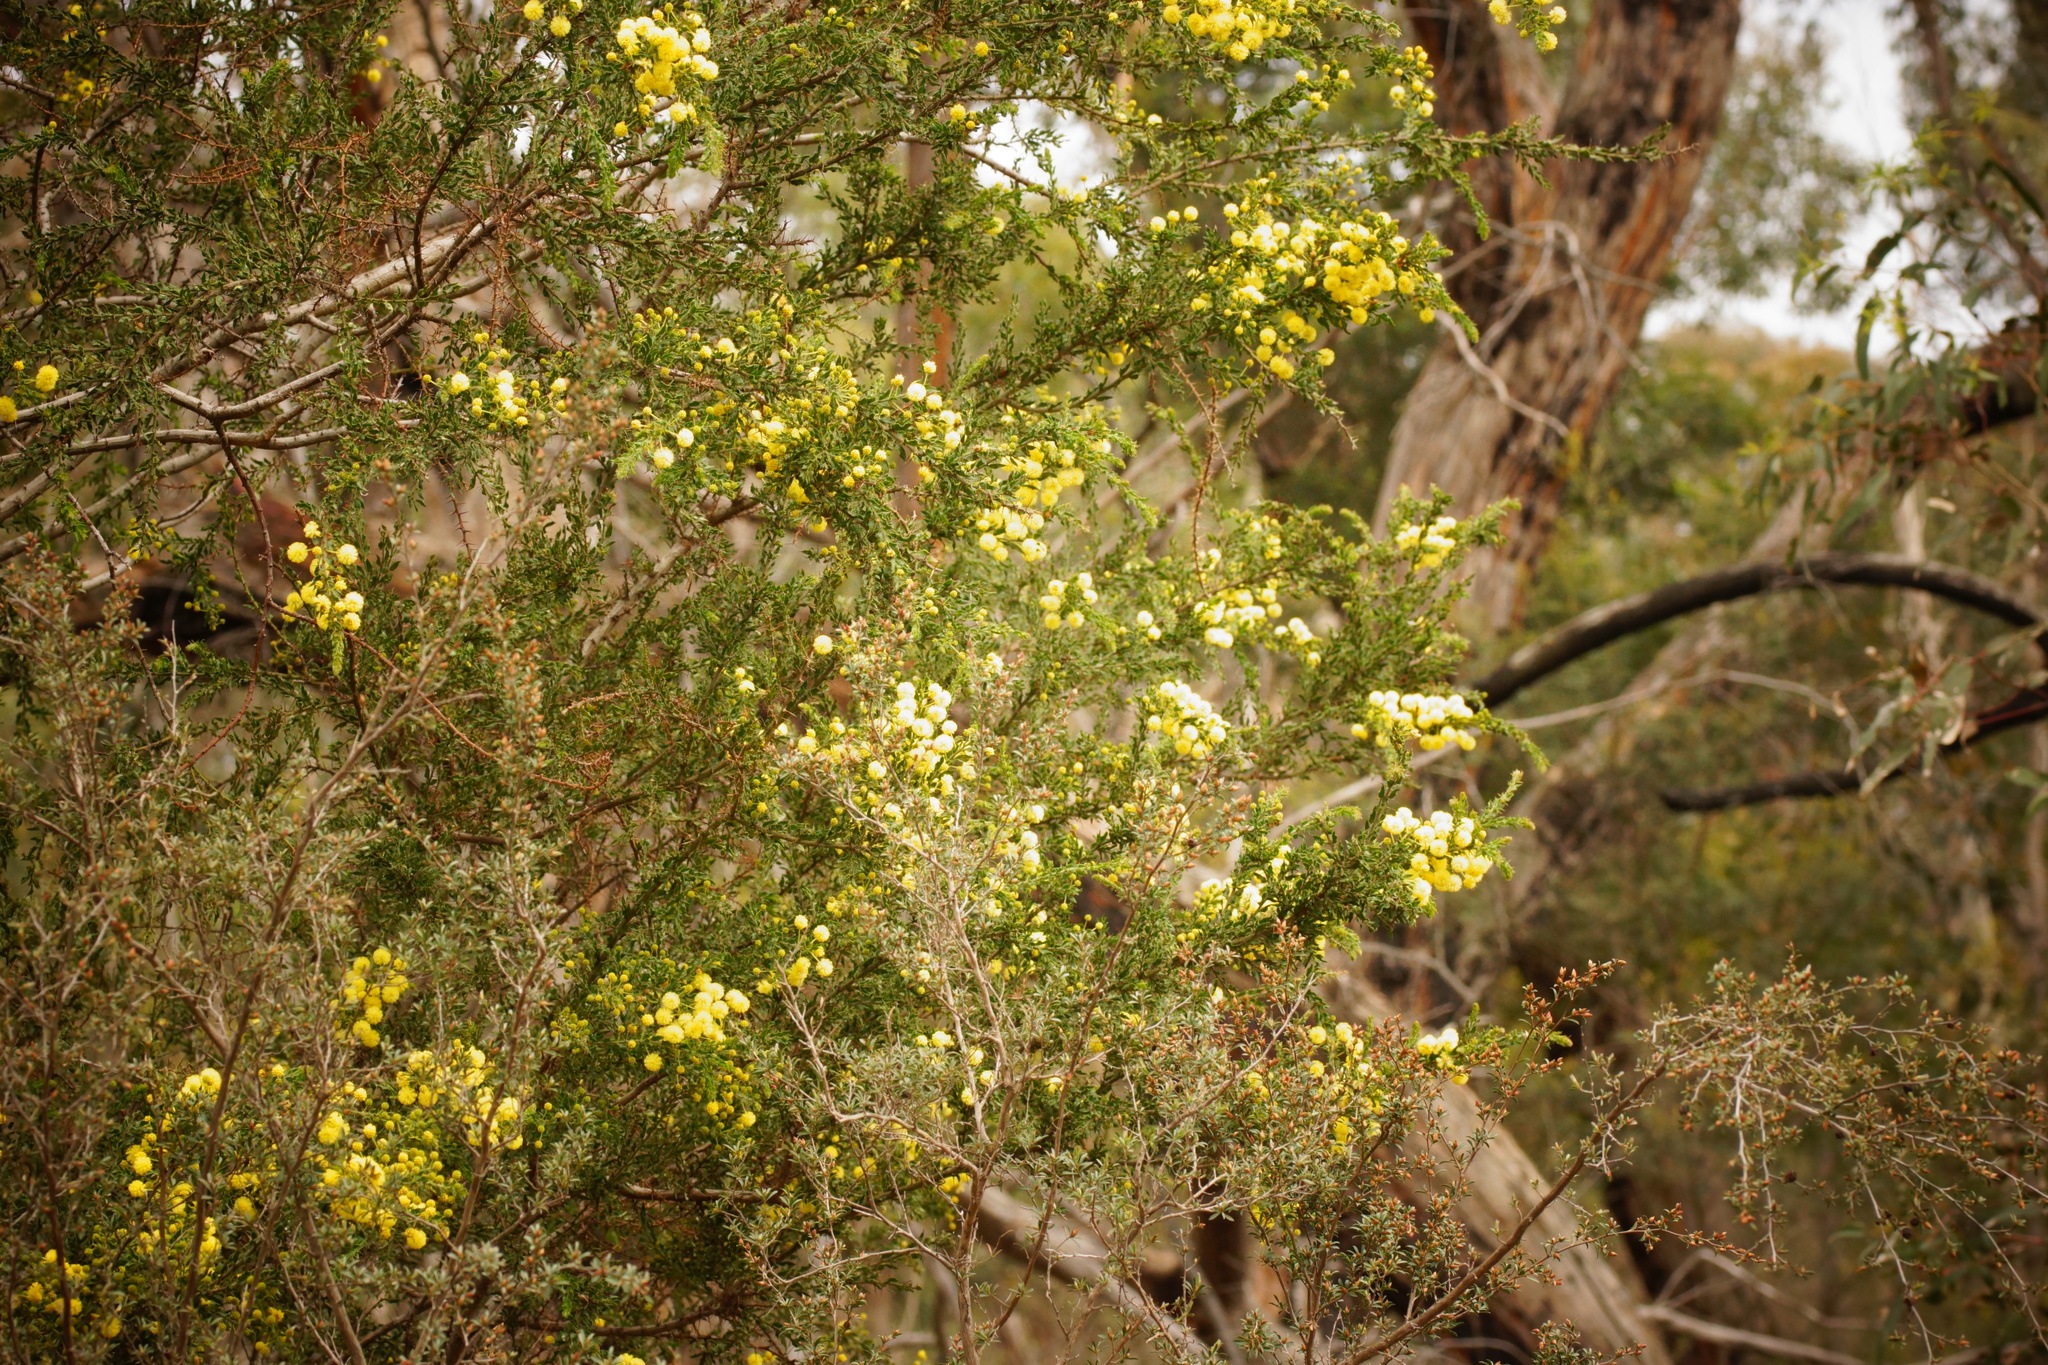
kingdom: Plantae
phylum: Tracheophyta
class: Magnoliopsida
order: Fabales
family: Fabaceae
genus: Acacia
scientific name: Acacia paradoxa
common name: Paradox acacia
